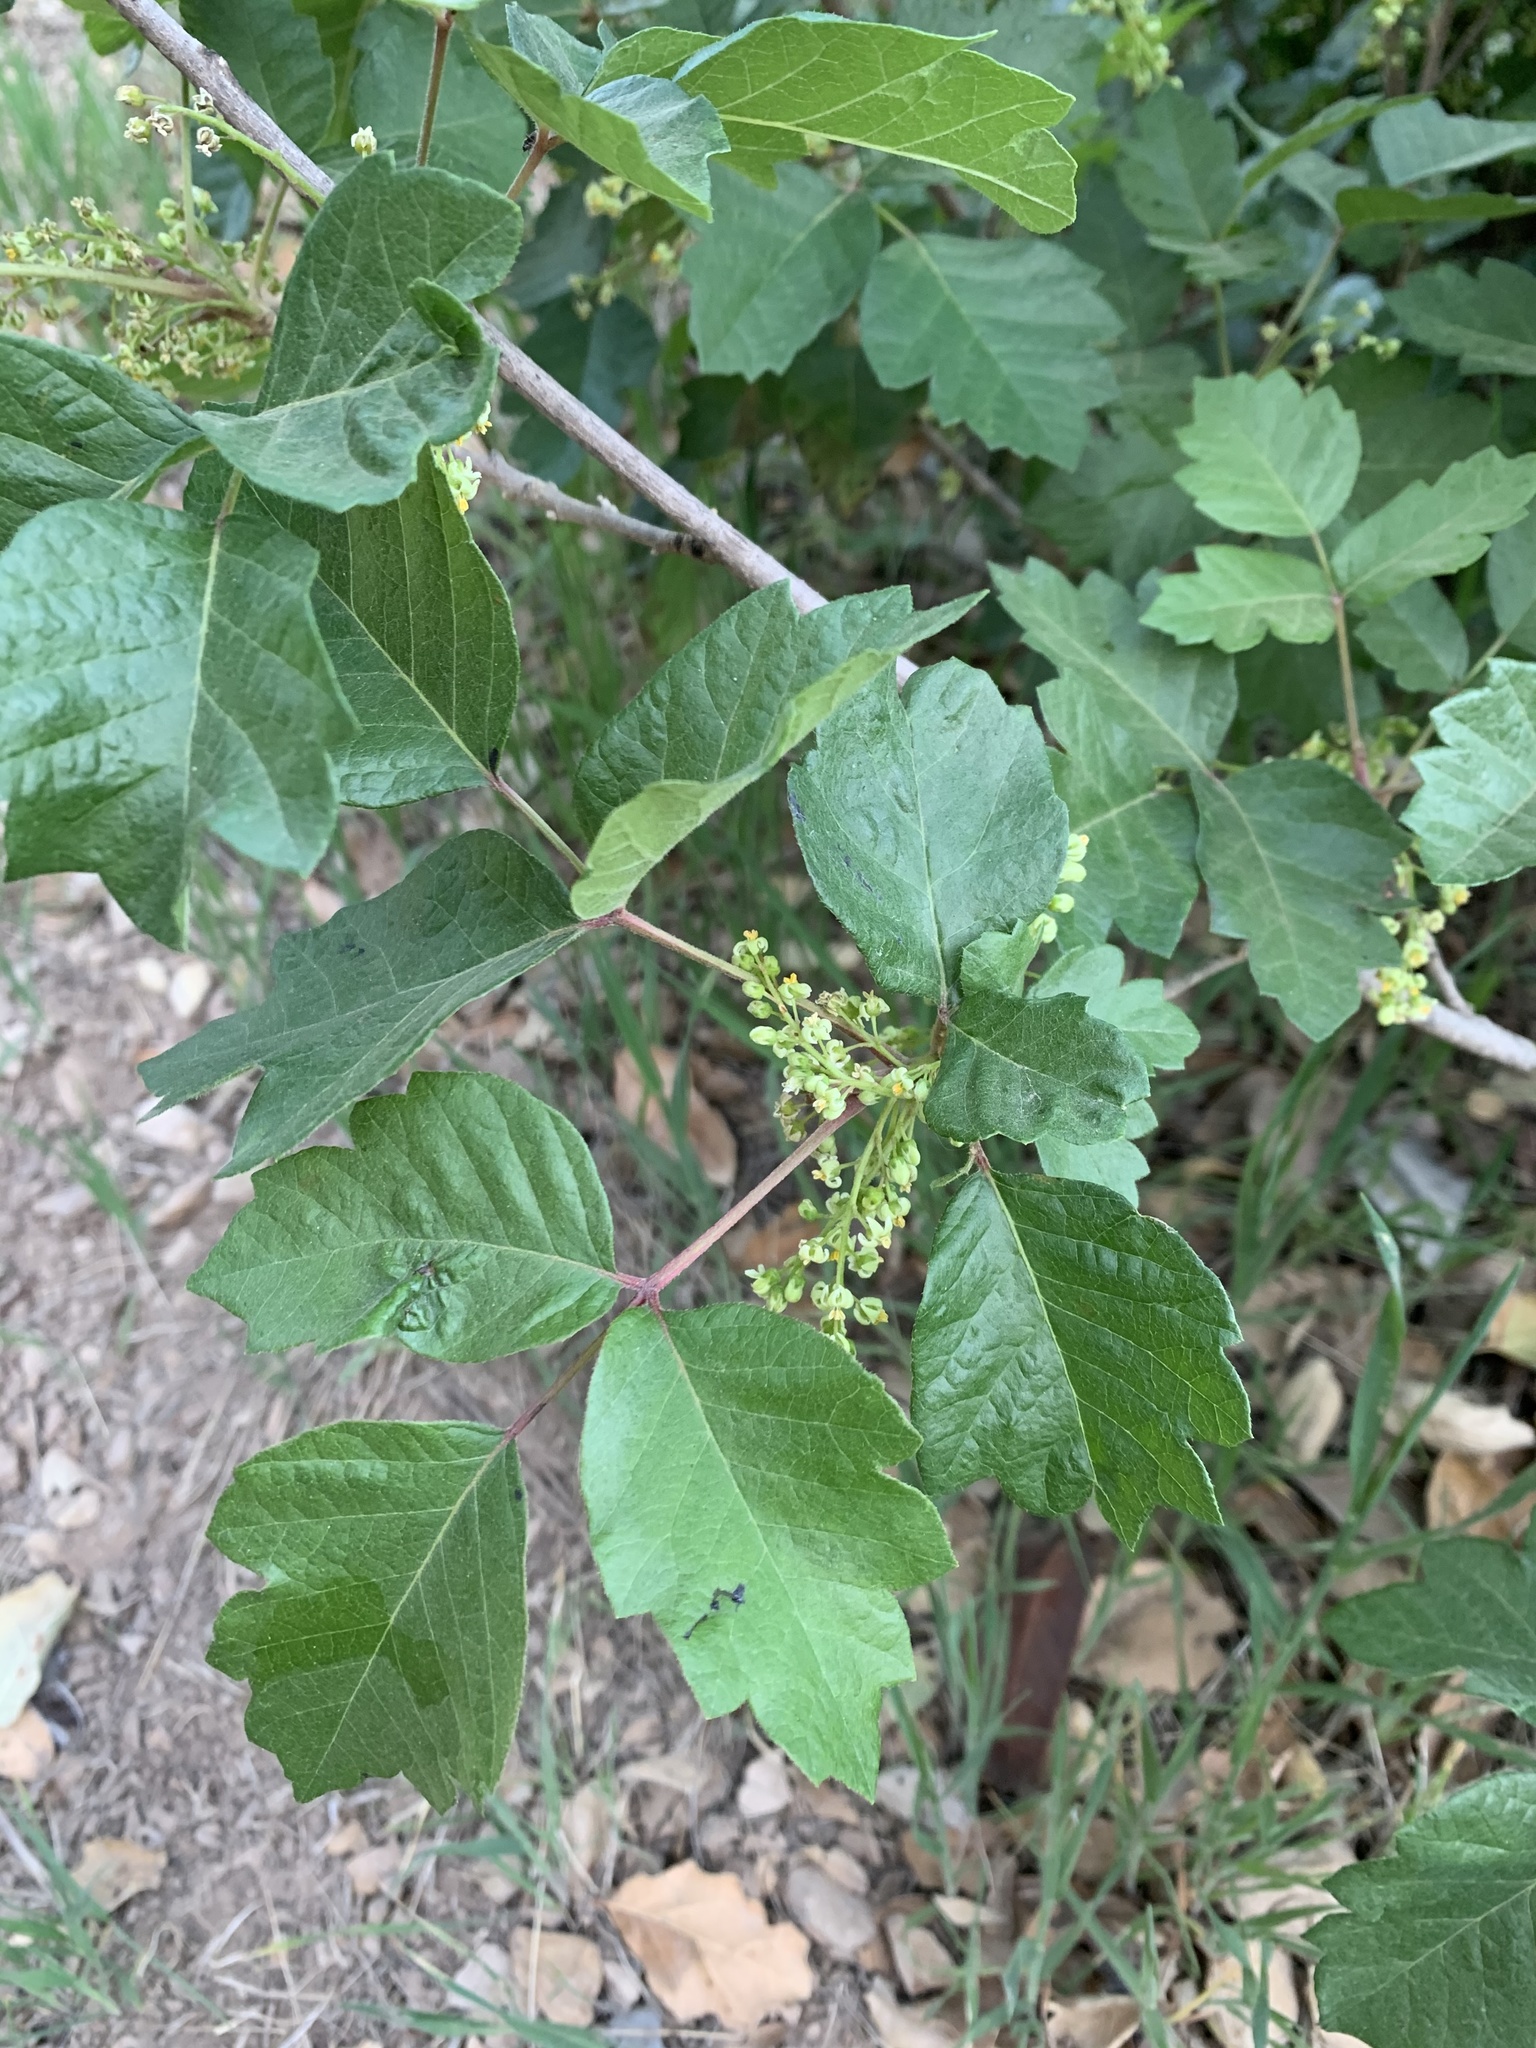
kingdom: Plantae
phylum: Tracheophyta
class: Magnoliopsida
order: Sapindales
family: Anacardiaceae
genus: Toxicodendron
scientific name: Toxicodendron diversilobum
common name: Pacific poison-oak
